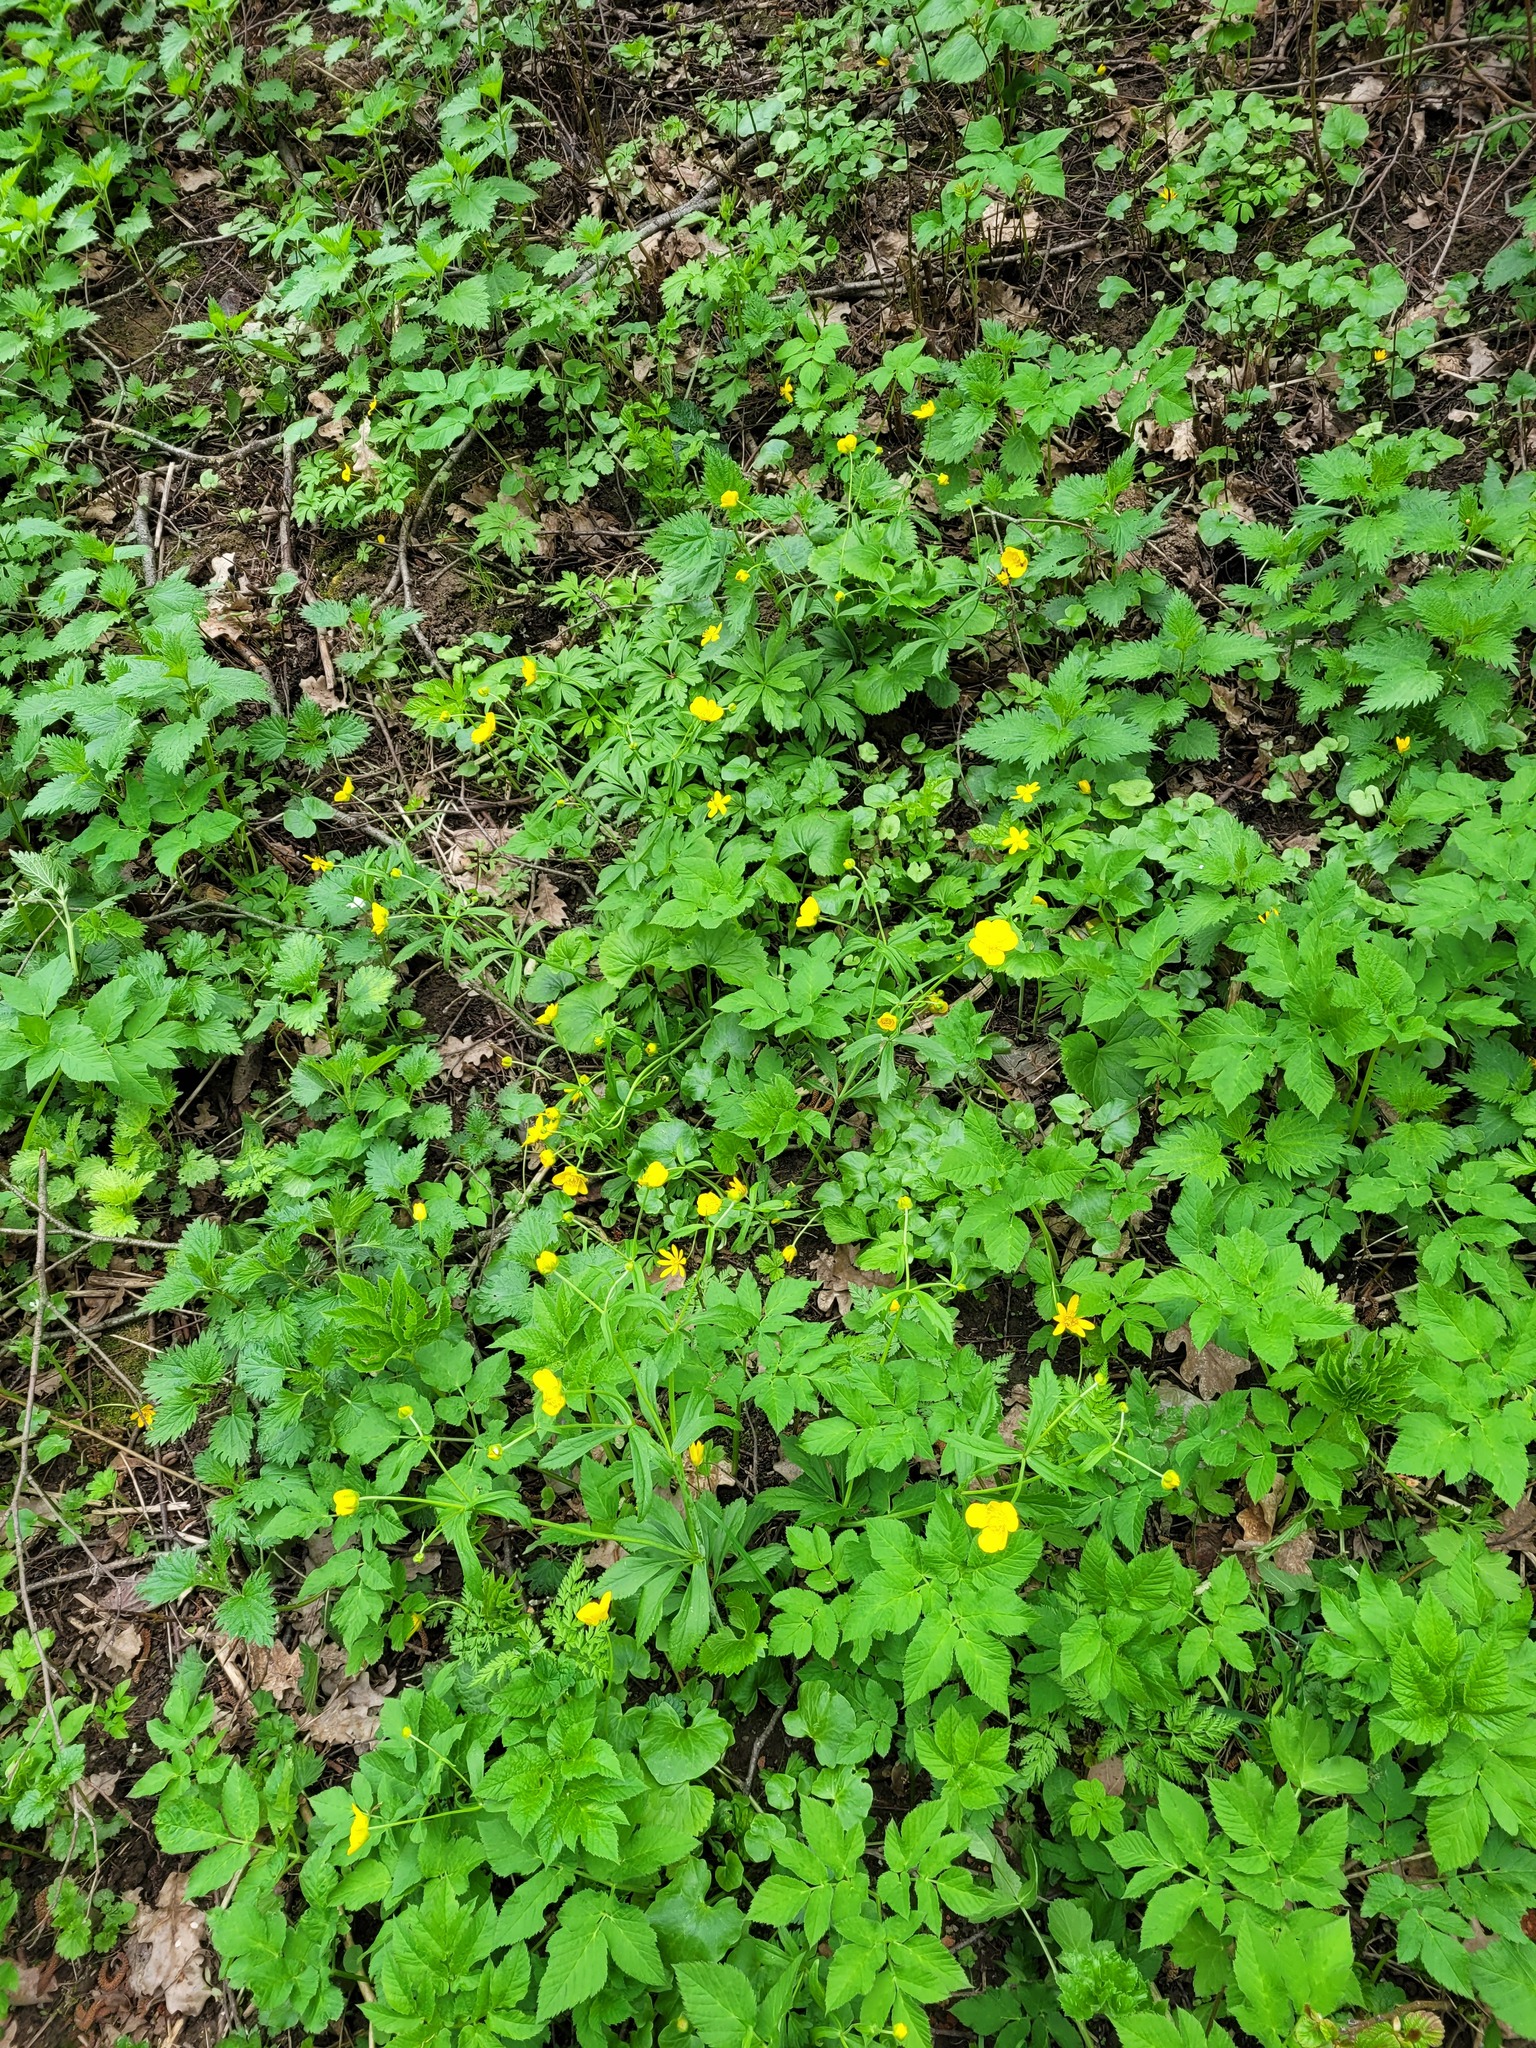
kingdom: Plantae
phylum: Tracheophyta
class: Magnoliopsida
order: Ranunculales
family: Ranunculaceae
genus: Ranunculus
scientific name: Ranunculus cassubicus
